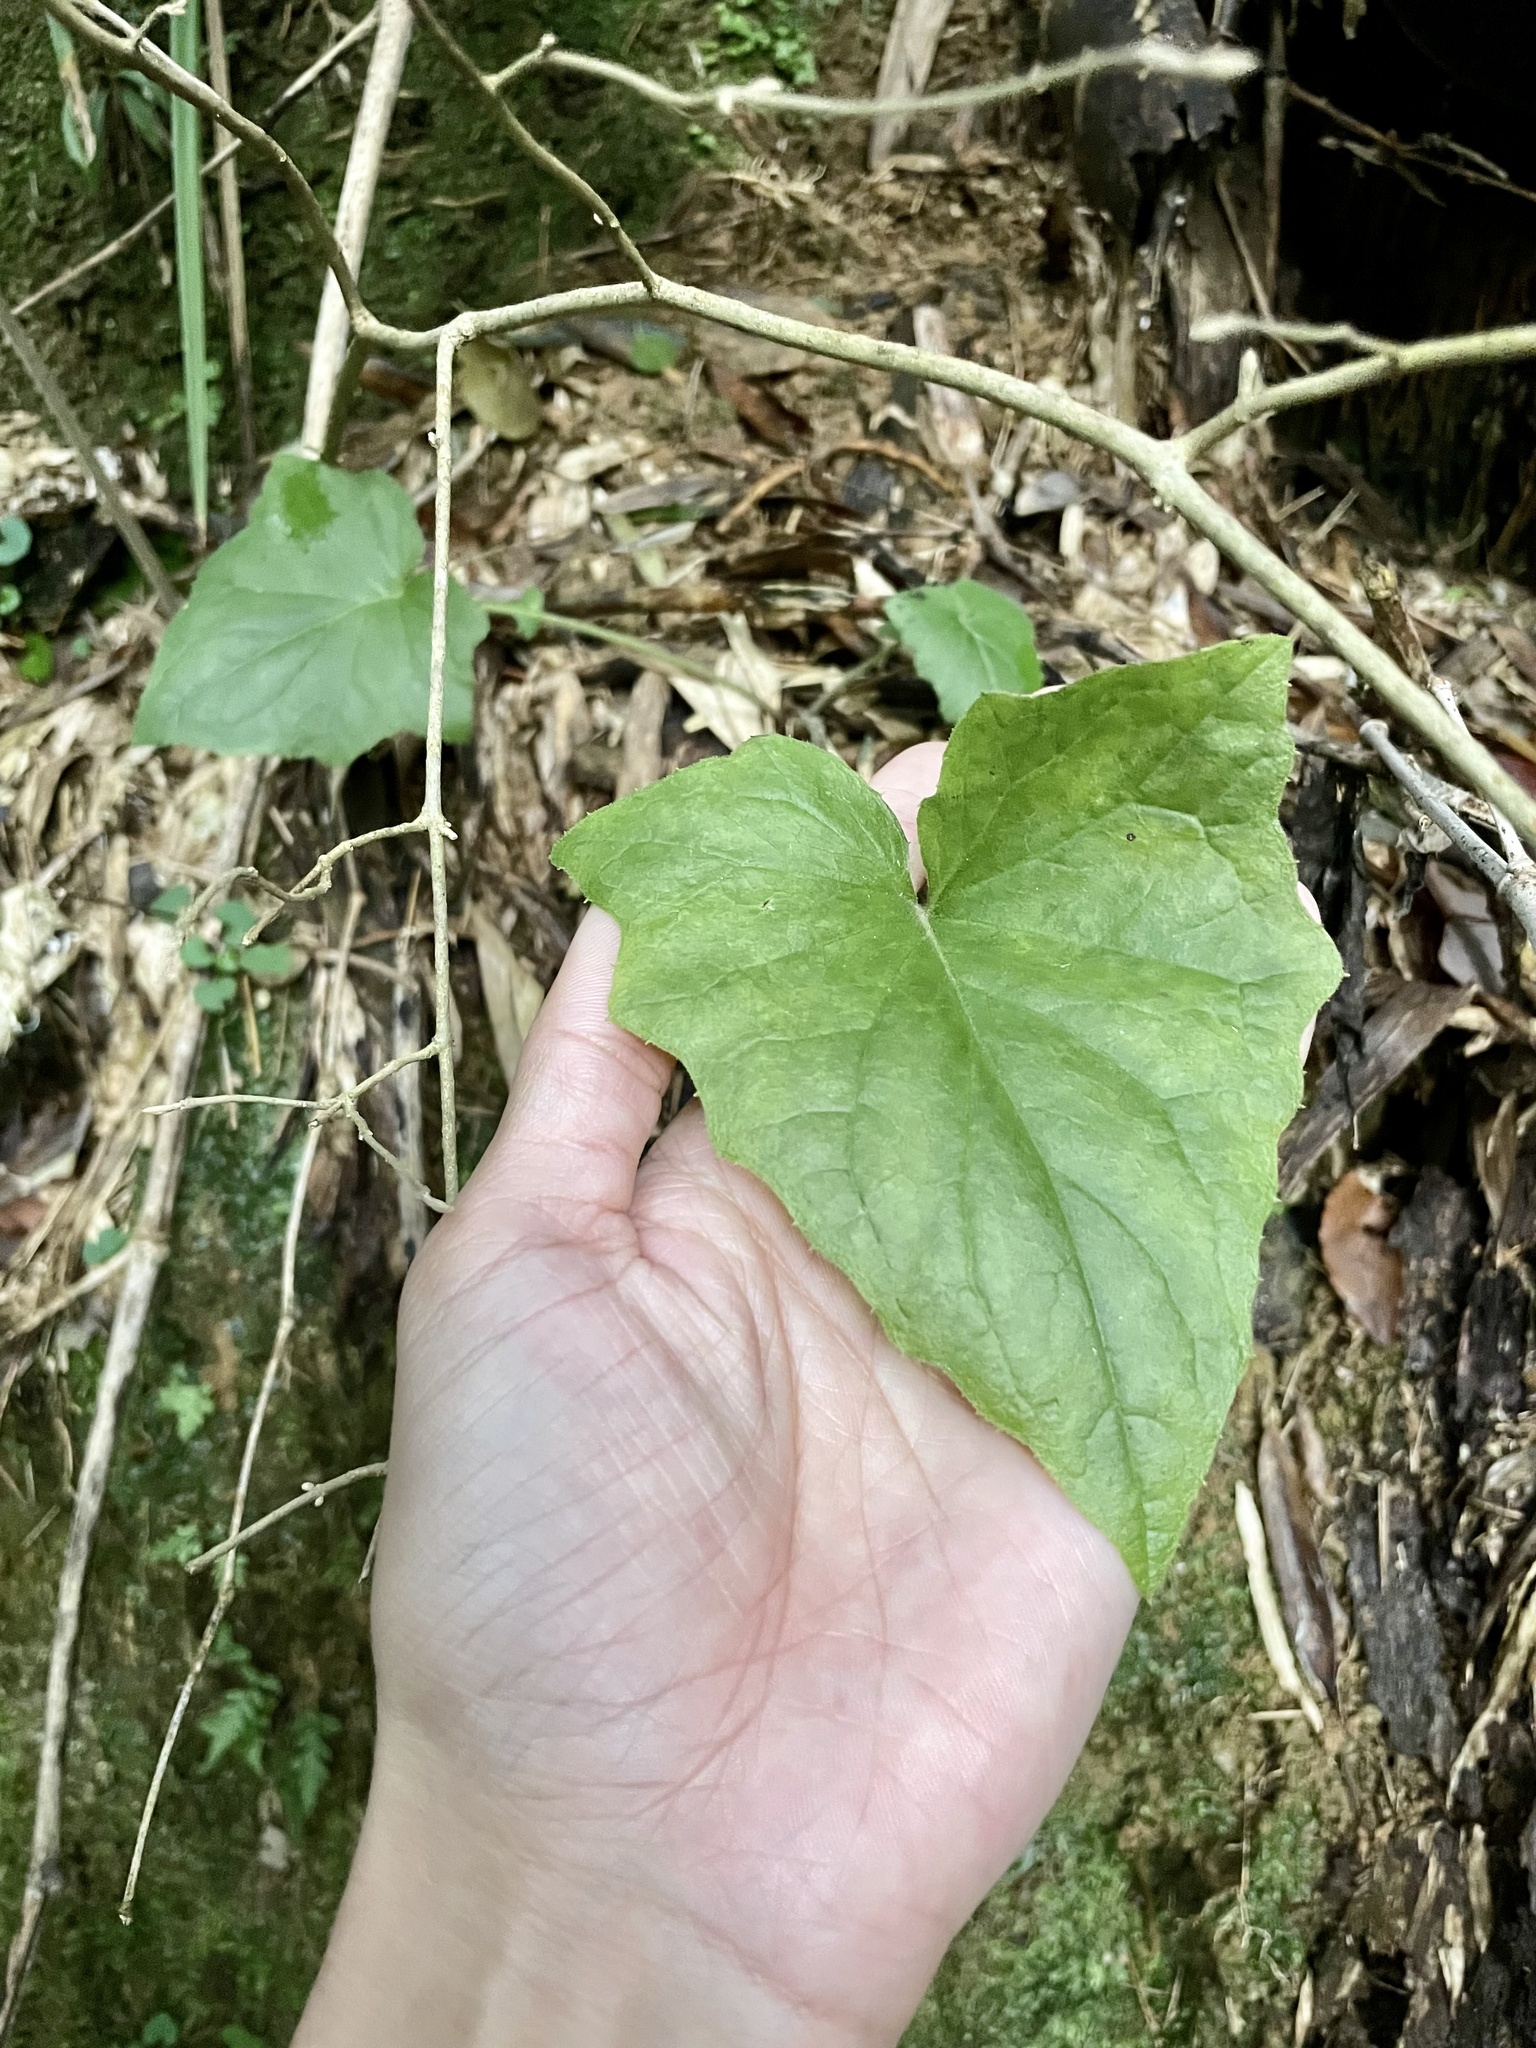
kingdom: Plantae
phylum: Tracheophyta
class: Magnoliopsida
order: Asterales
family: Asteraceae
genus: Paraprenanthes
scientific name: Paraprenanthes sororia
